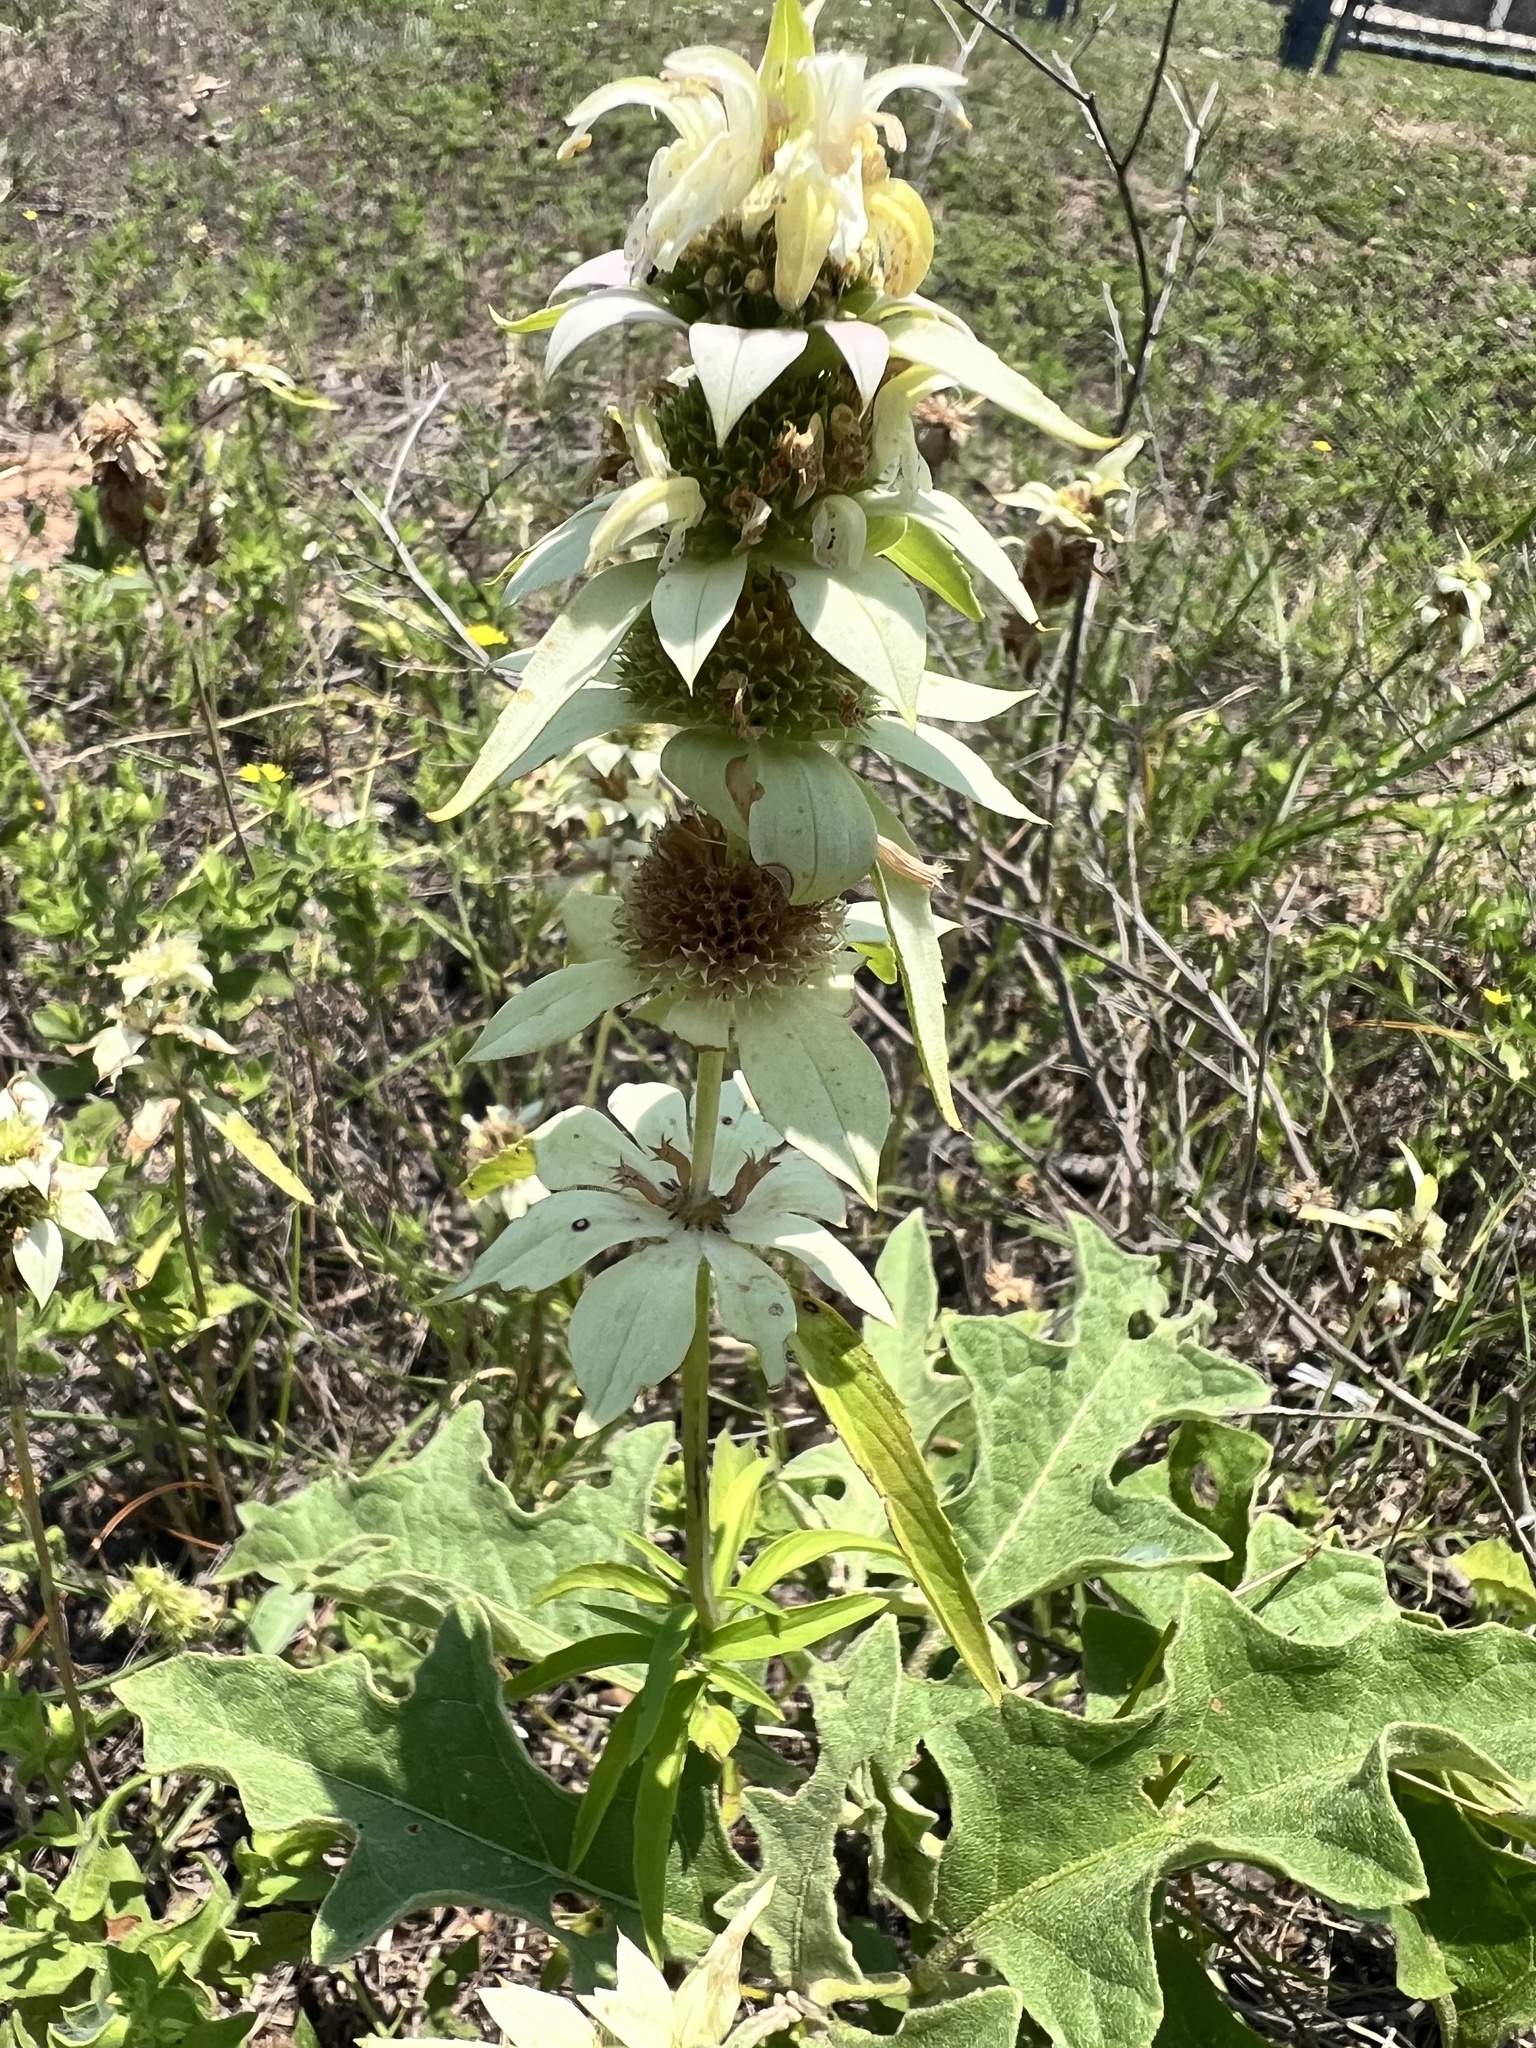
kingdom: Plantae
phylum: Tracheophyta
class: Magnoliopsida
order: Lamiales
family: Lamiaceae
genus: Monarda
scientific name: Monarda punctata
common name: Dotted monarda
